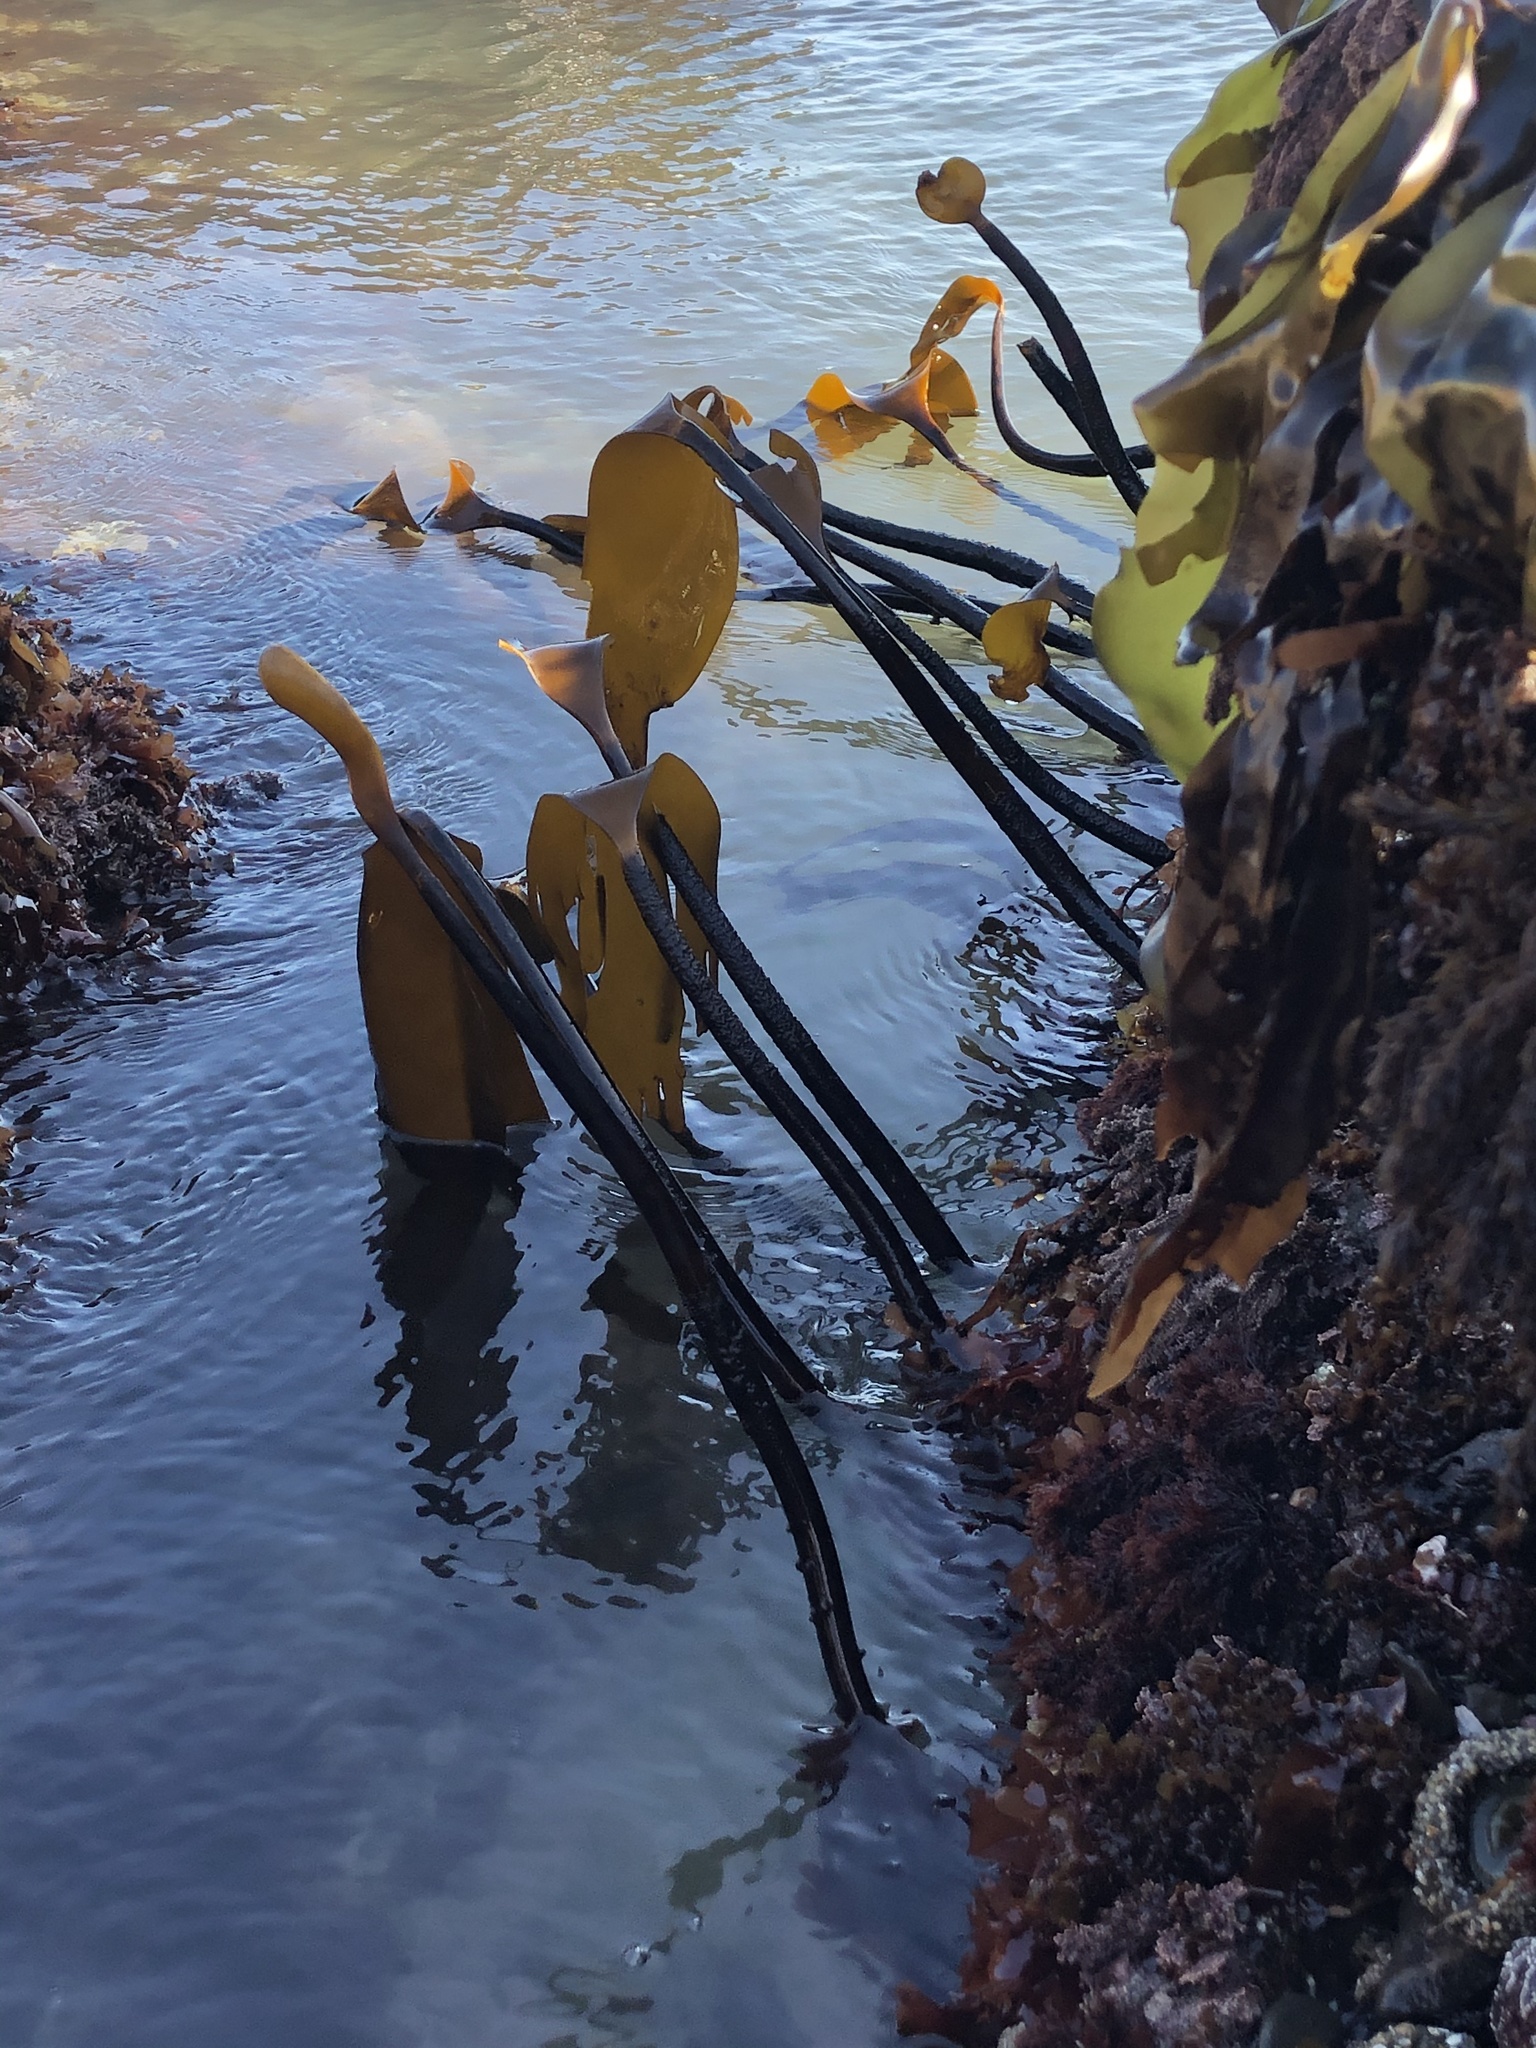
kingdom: Chromista
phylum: Ochrophyta
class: Phaeophyceae
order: Laminariales
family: Laminariaceae
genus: Laminaria
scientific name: Laminaria setchellii
